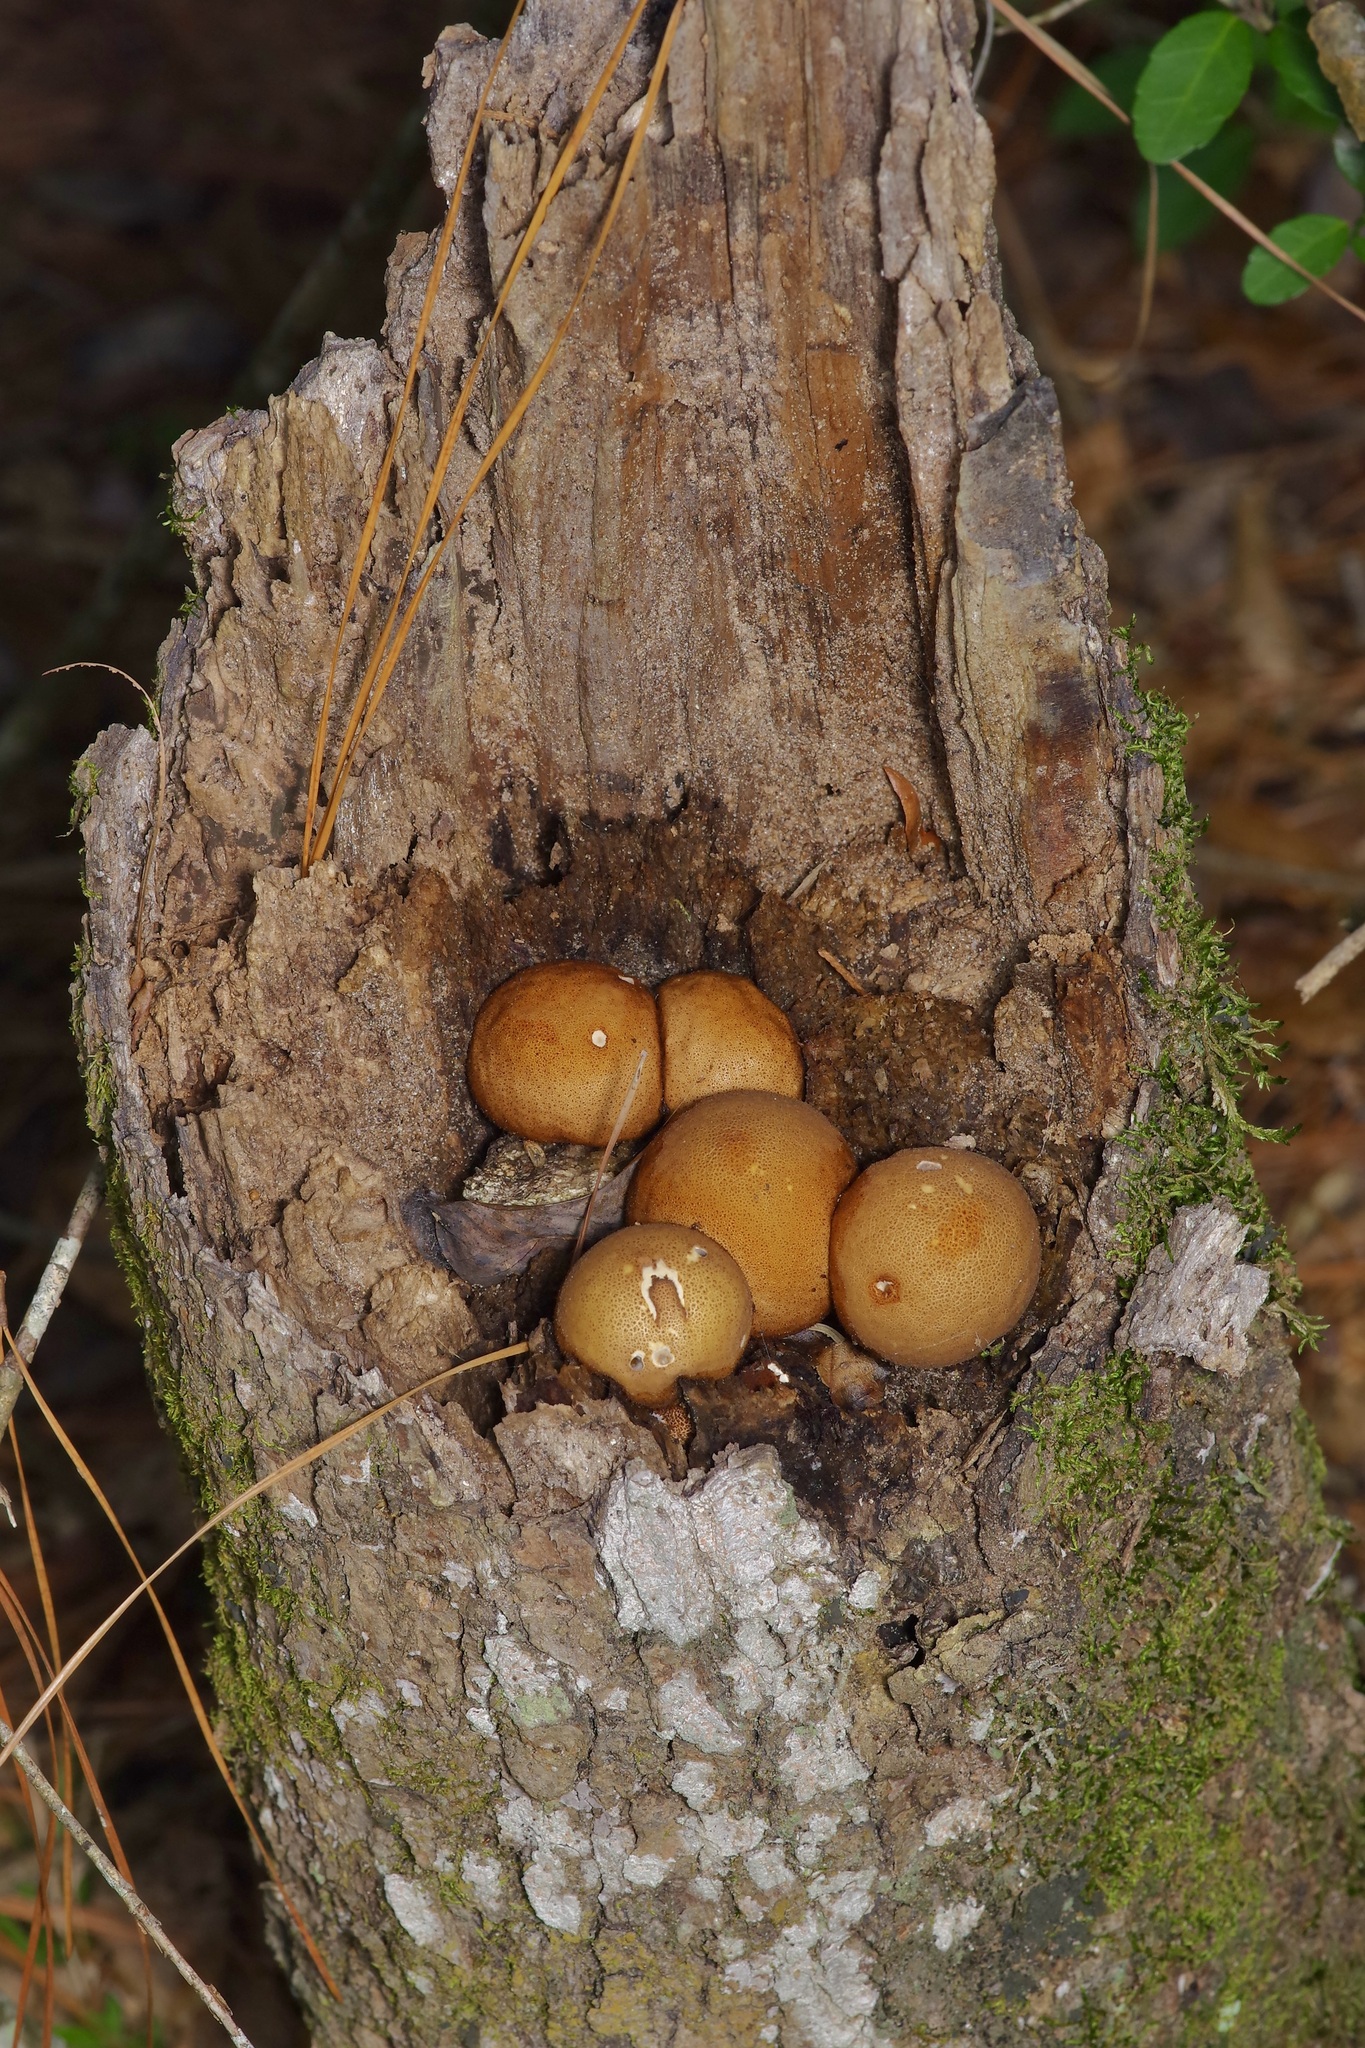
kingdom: Fungi
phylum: Basidiomycota
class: Agaricomycetes
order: Agaricales
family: Lycoperdaceae
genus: Apioperdon
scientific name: Apioperdon pyriforme
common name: Pear-shaped puffball
